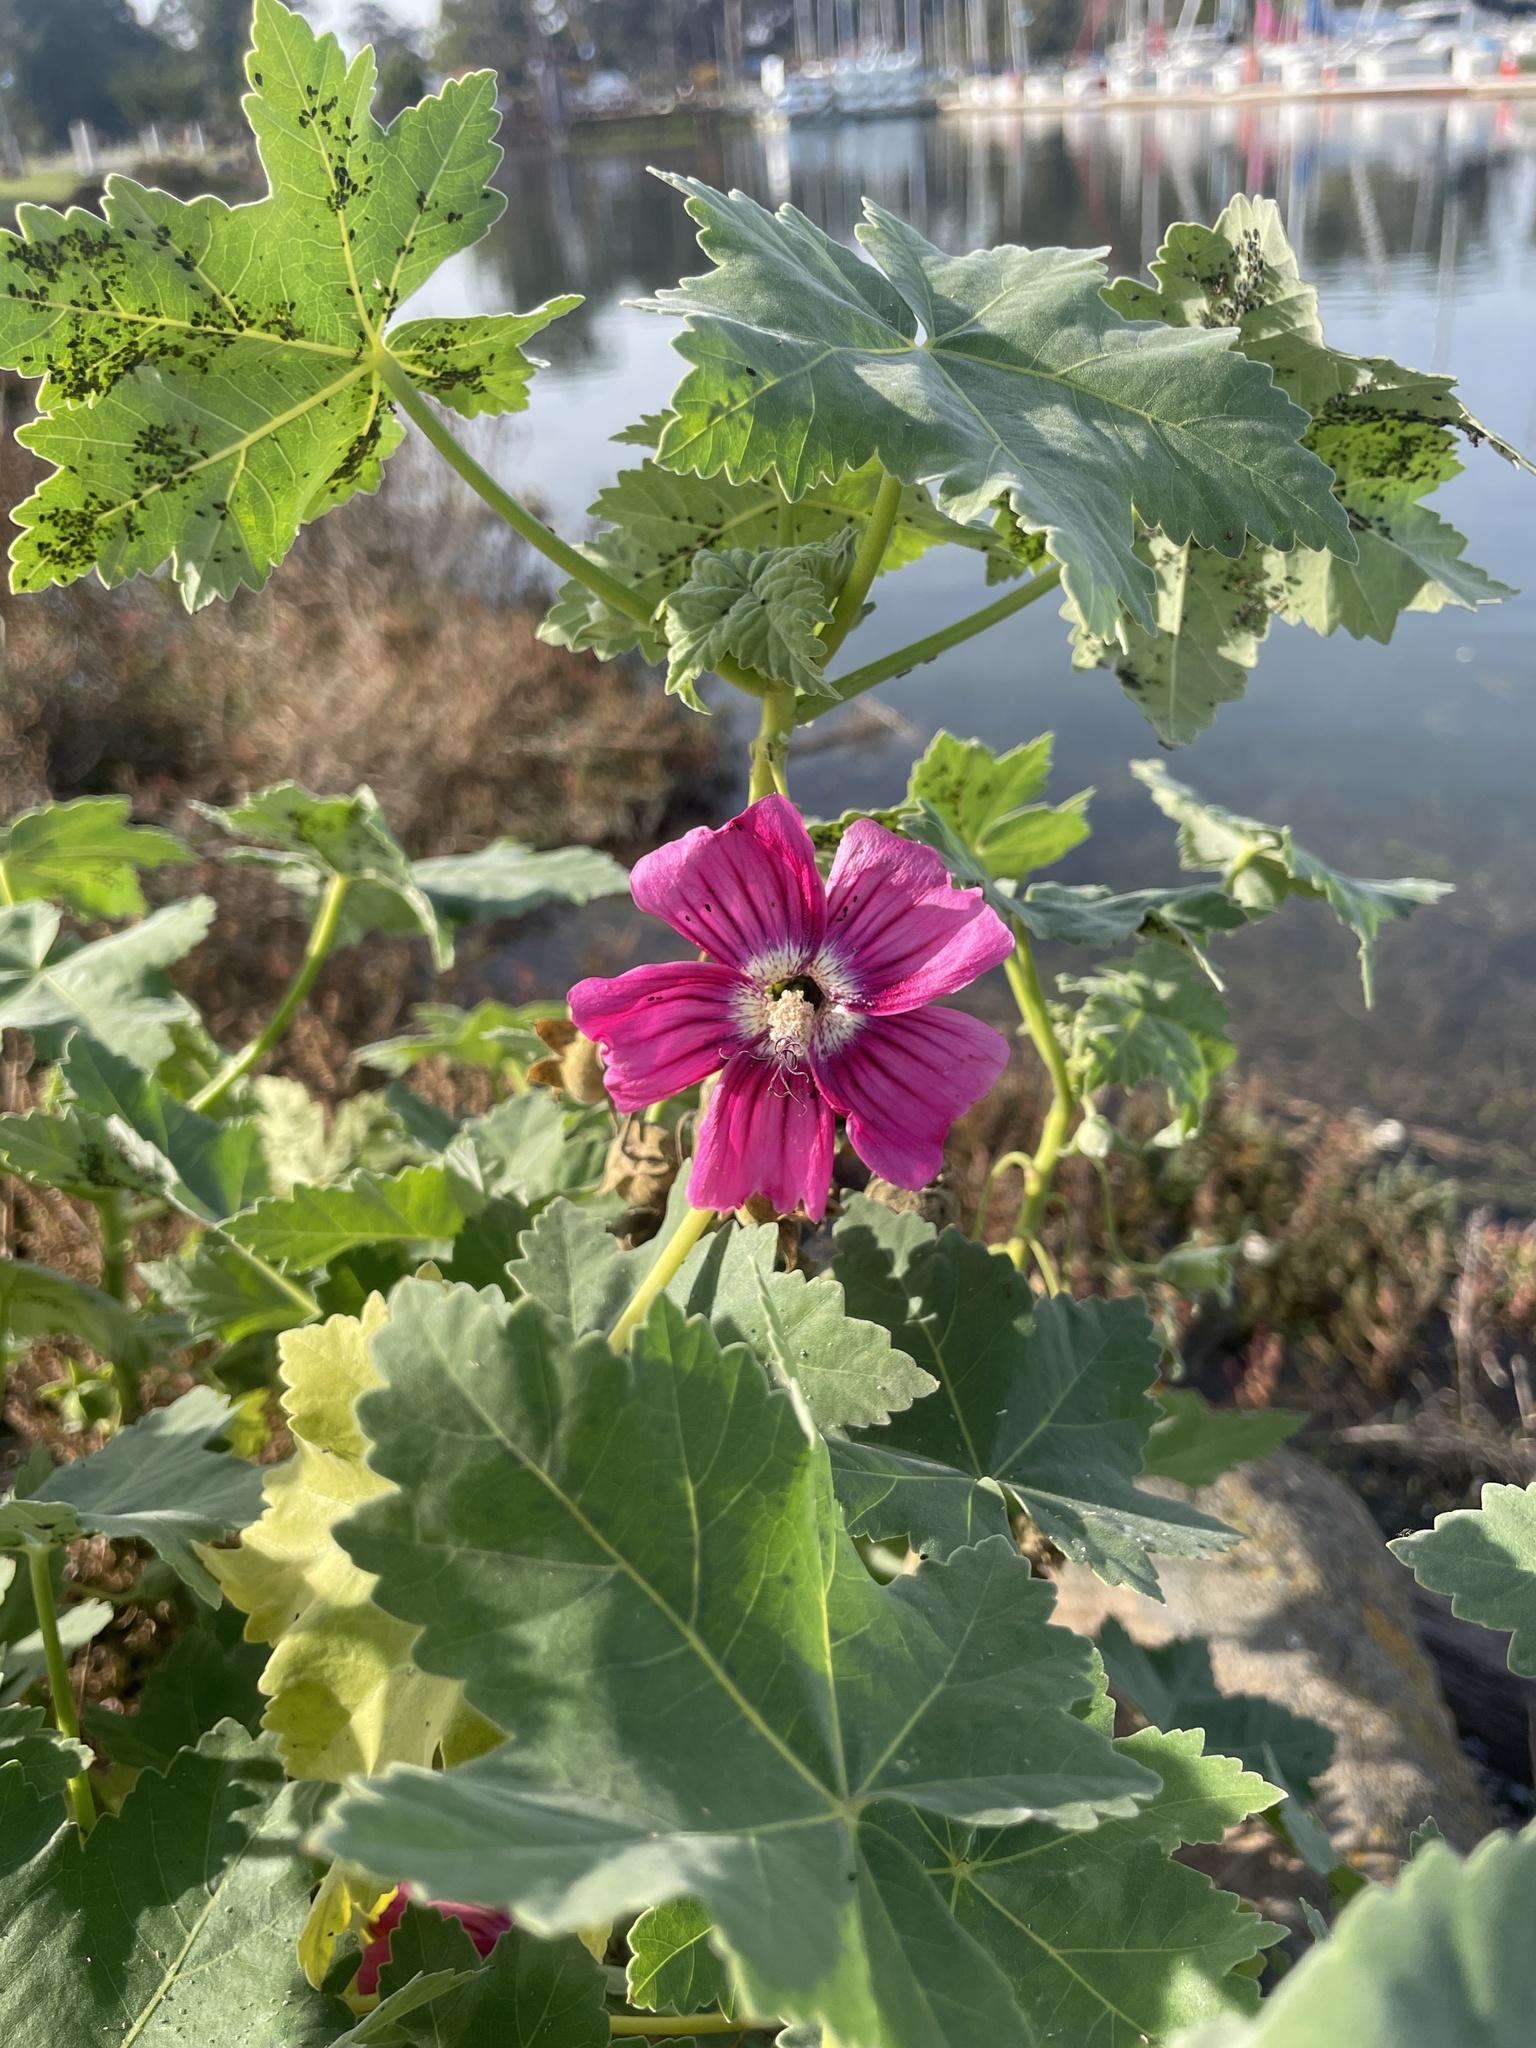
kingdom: Plantae
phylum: Tracheophyta
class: Magnoliopsida
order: Malvales
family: Malvaceae
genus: Malva
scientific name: Malva assurgentiflora
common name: Island mallow
